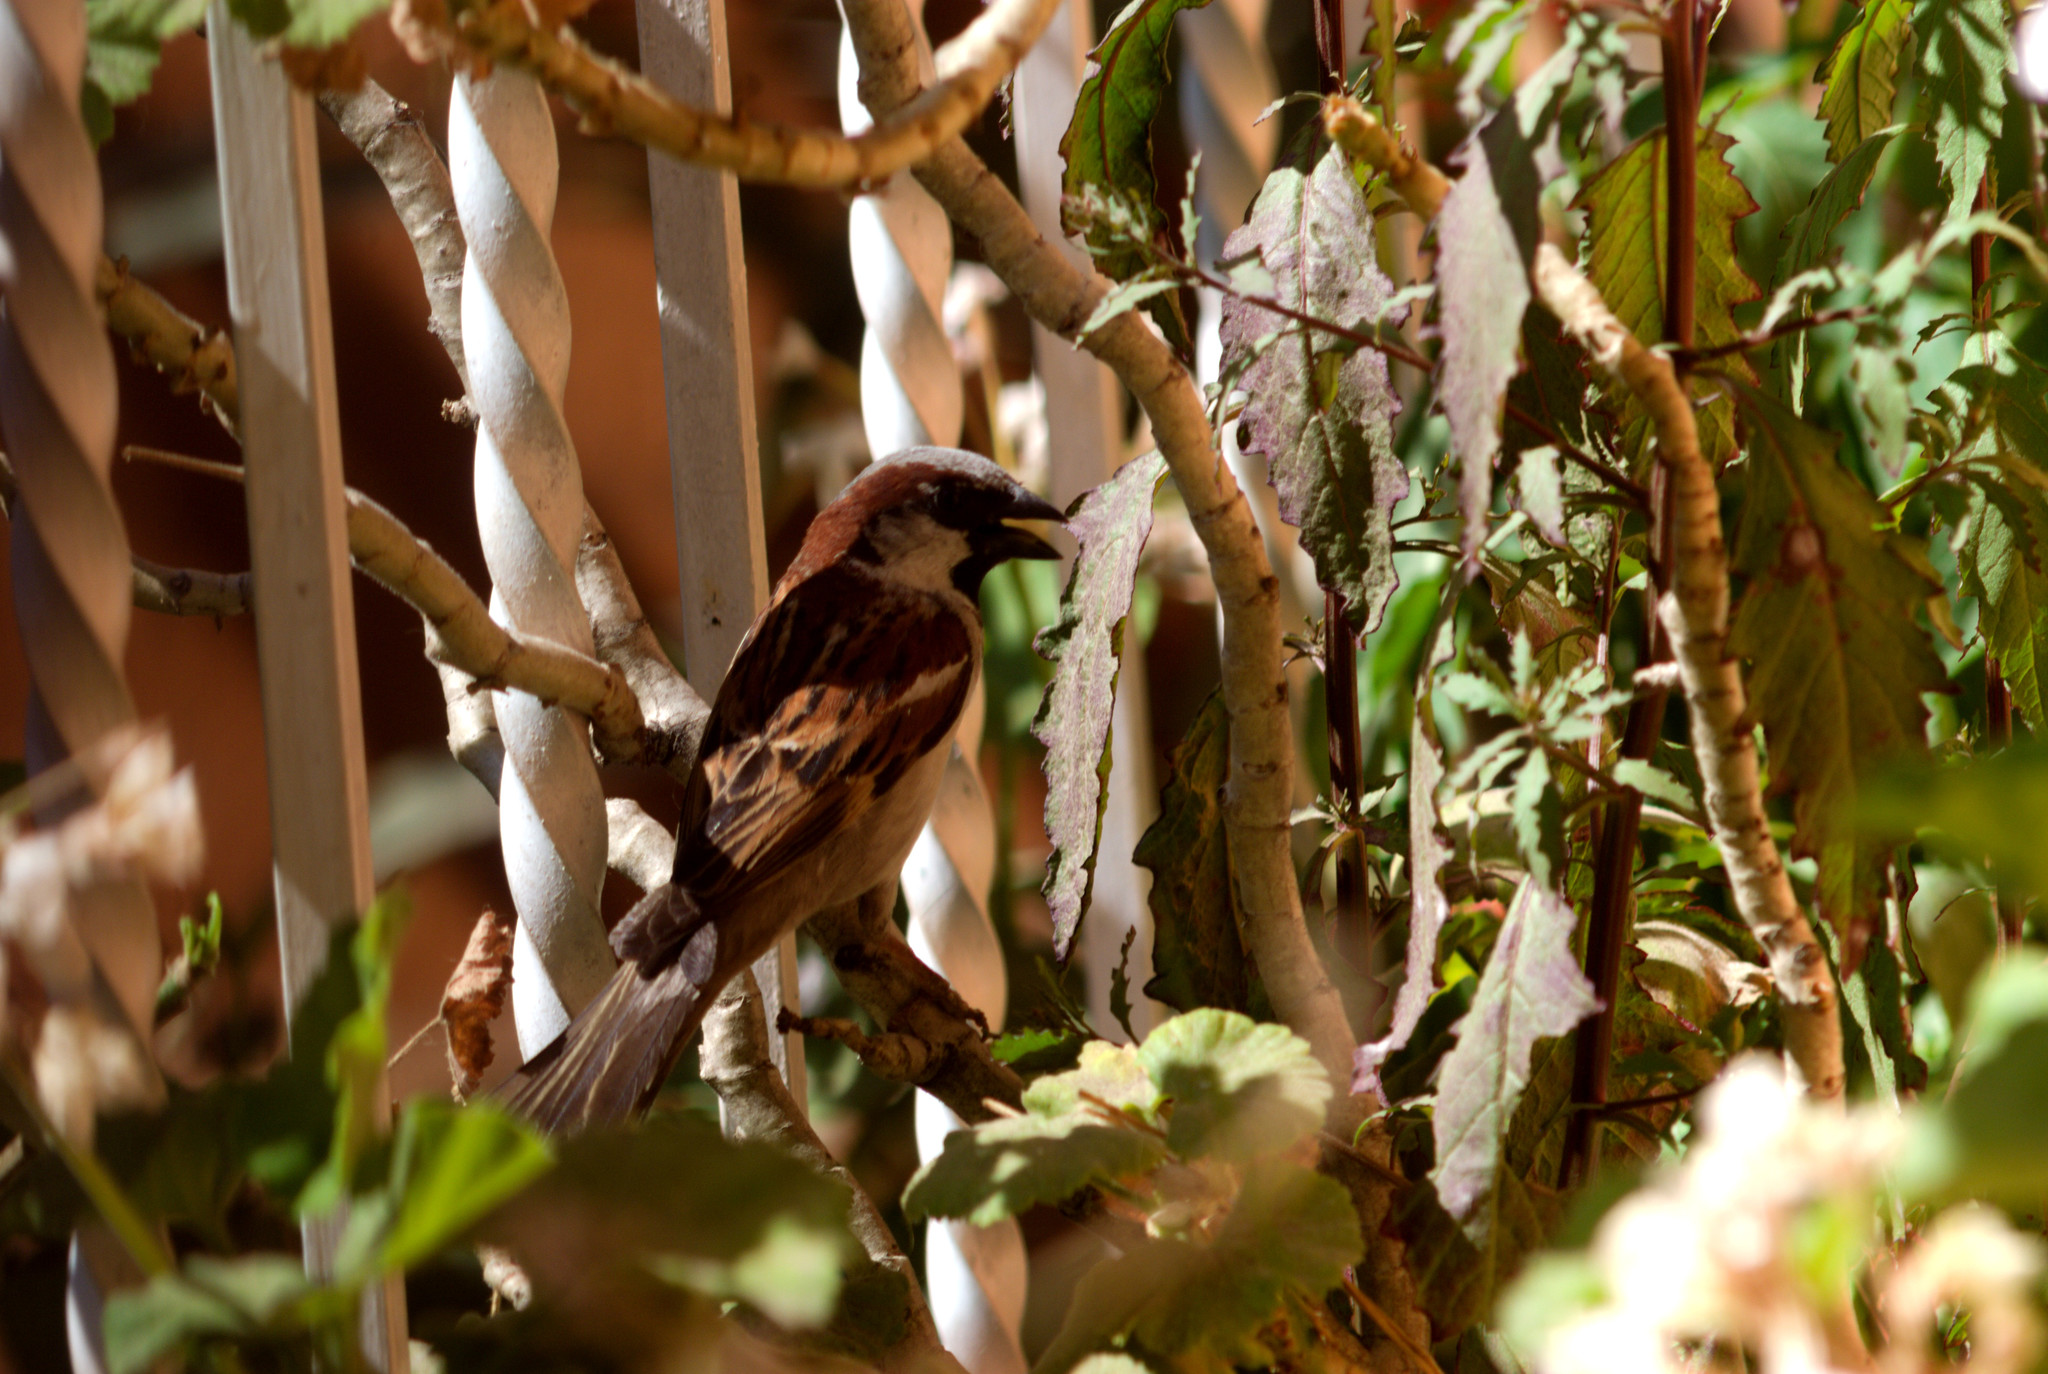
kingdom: Animalia
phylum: Chordata
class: Aves
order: Passeriformes
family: Passeridae
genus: Passer
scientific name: Passer domesticus
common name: House sparrow
